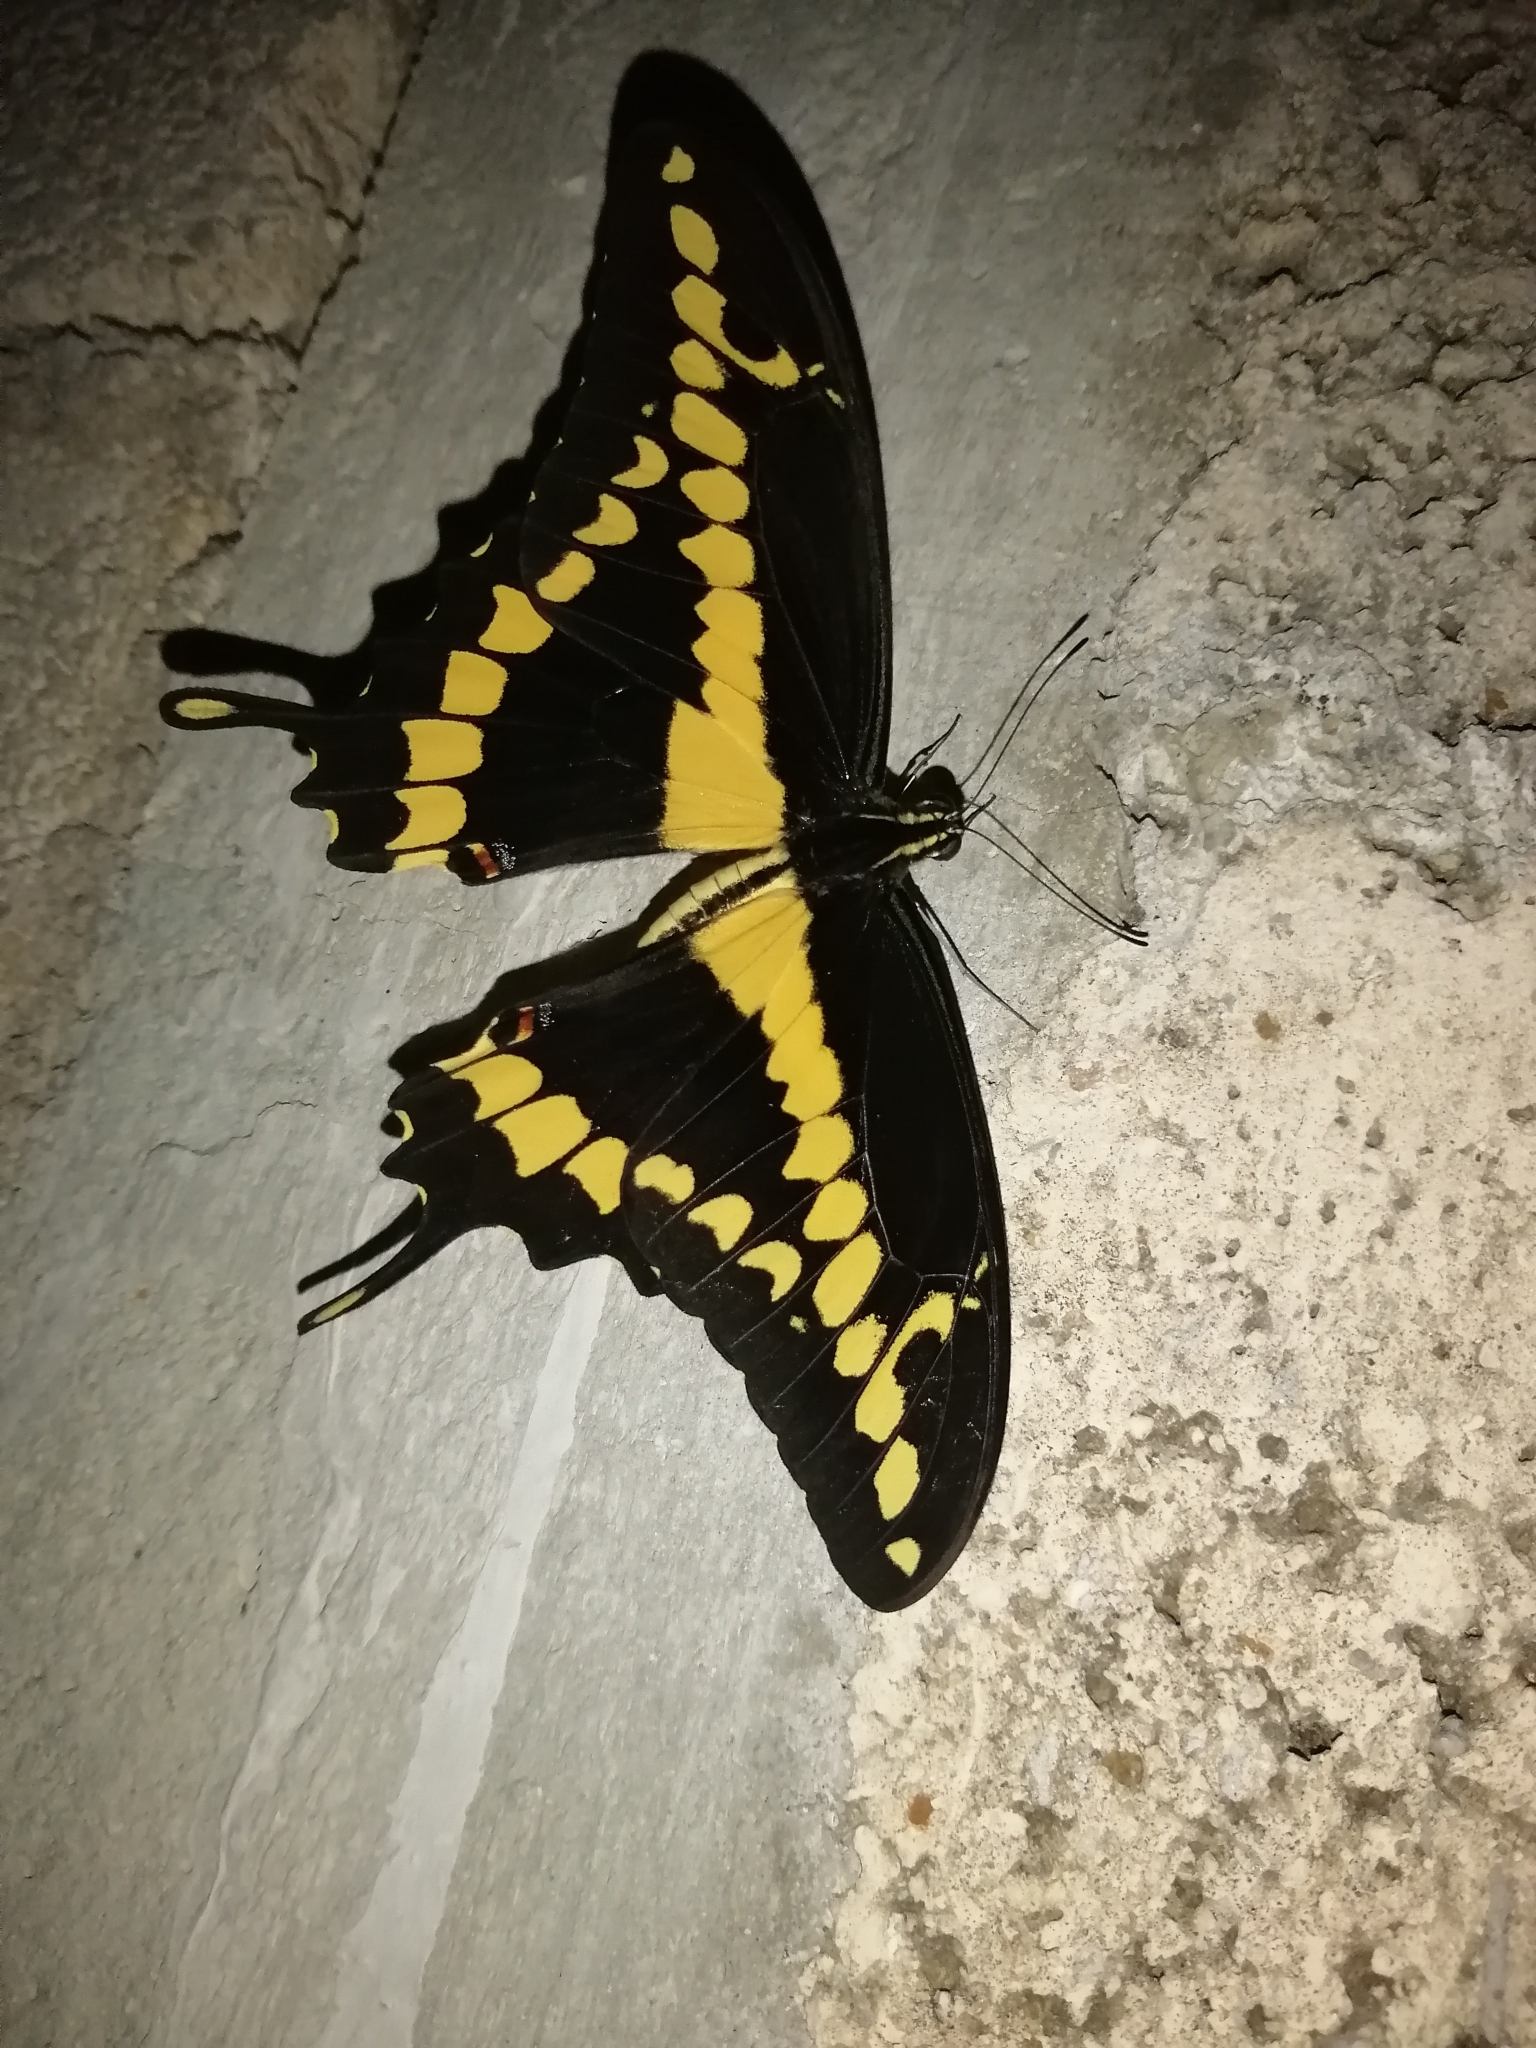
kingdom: Animalia
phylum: Arthropoda
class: Insecta
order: Lepidoptera
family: Papilionidae
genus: Papilio
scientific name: Papilio rumiko
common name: Western giant swallowtail
